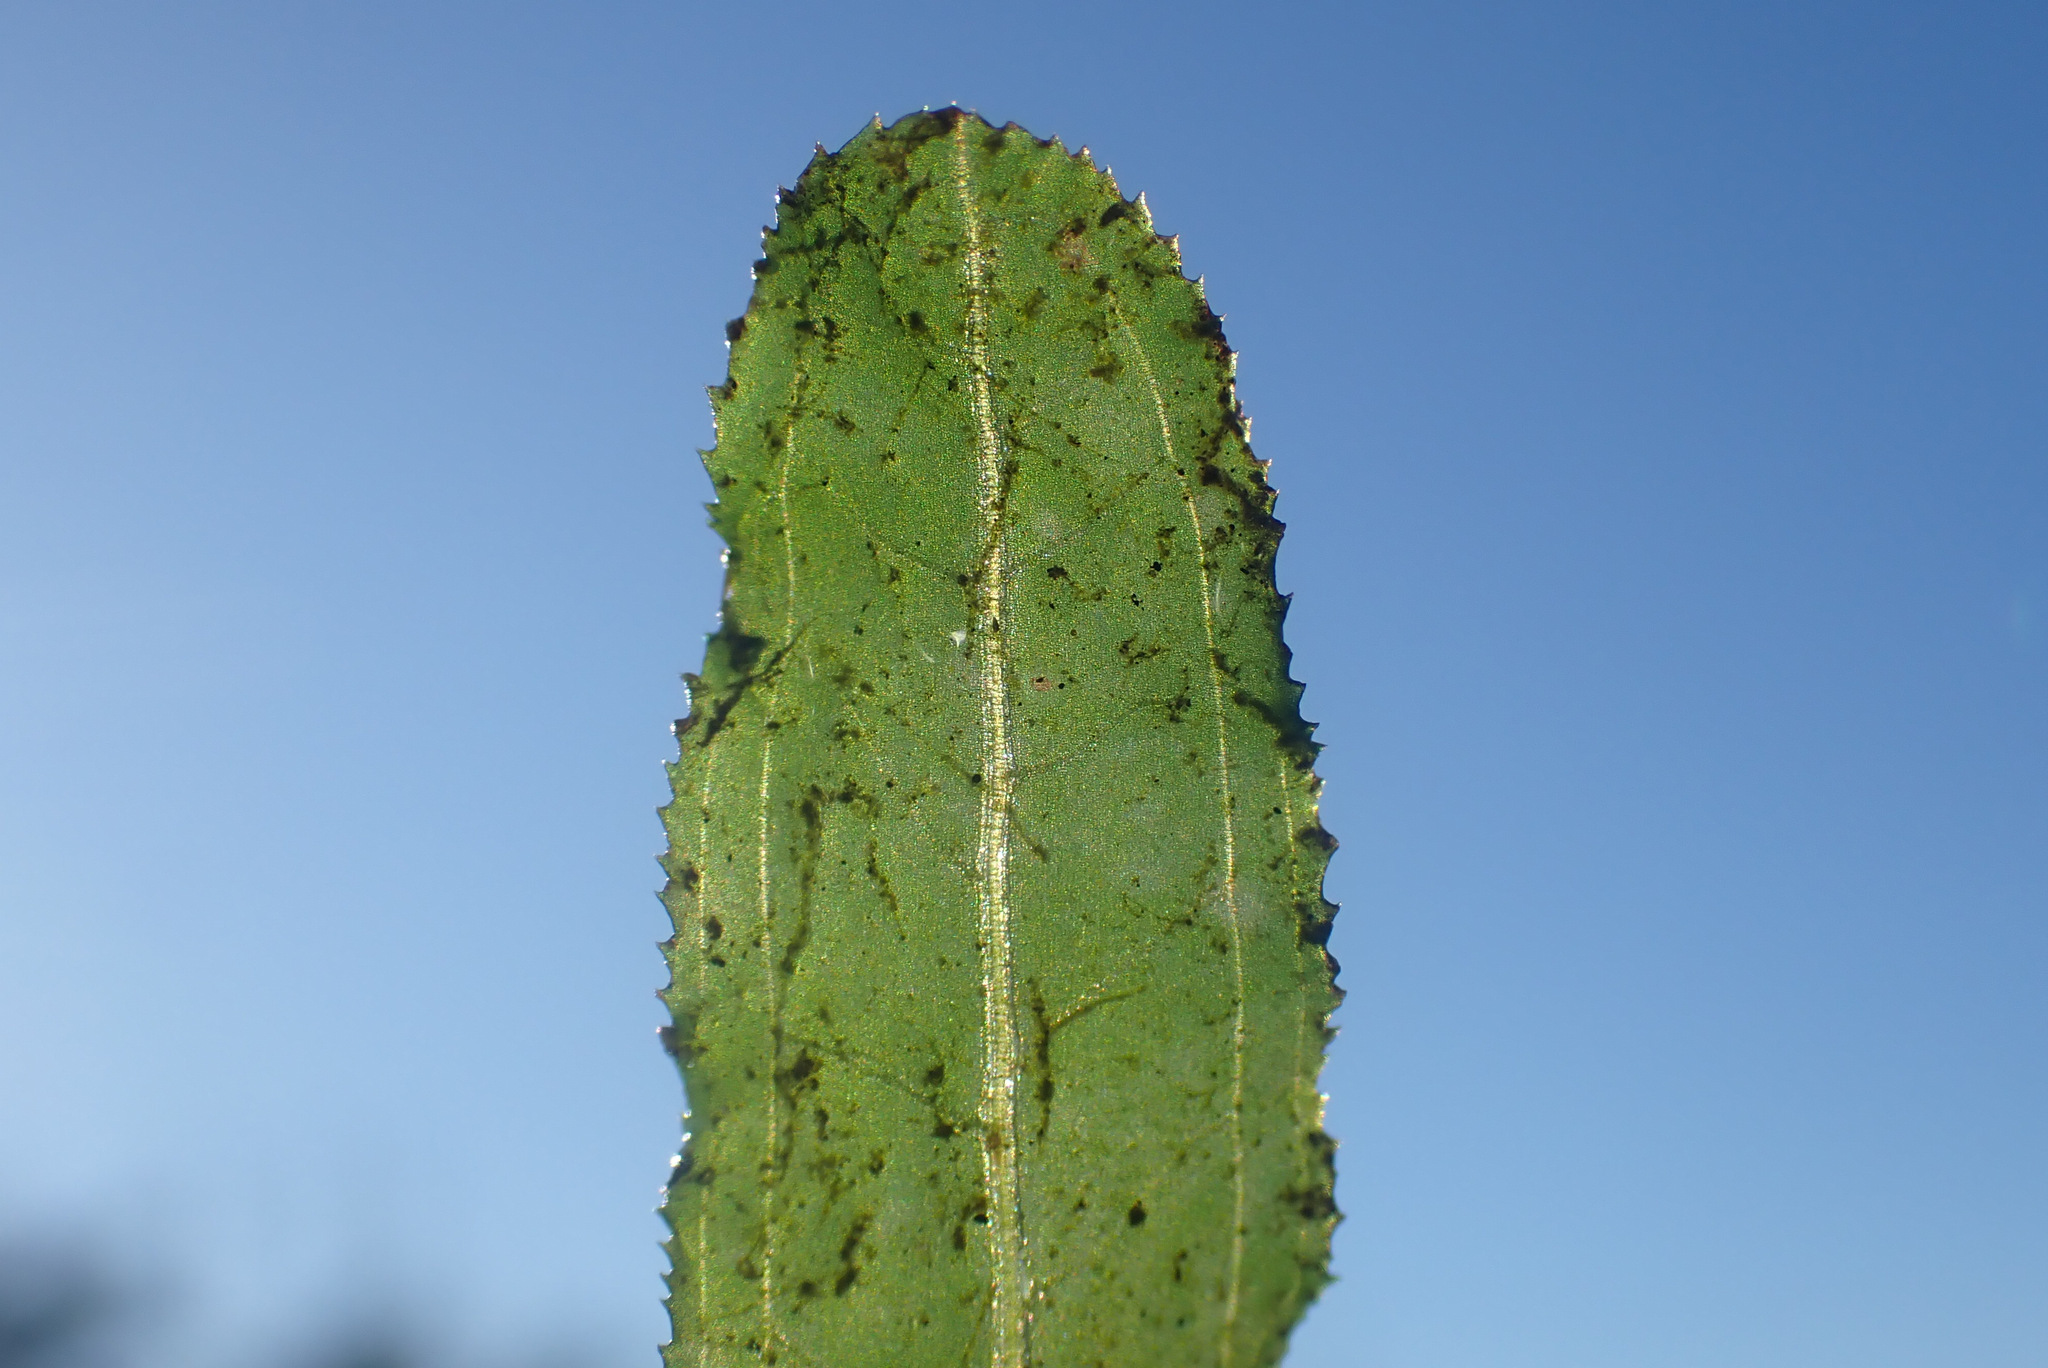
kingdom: Plantae
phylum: Tracheophyta
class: Liliopsida
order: Alismatales
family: Potamogetonaceae
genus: Potamogeton
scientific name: Potamogeton crispus
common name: Curled pondweed
